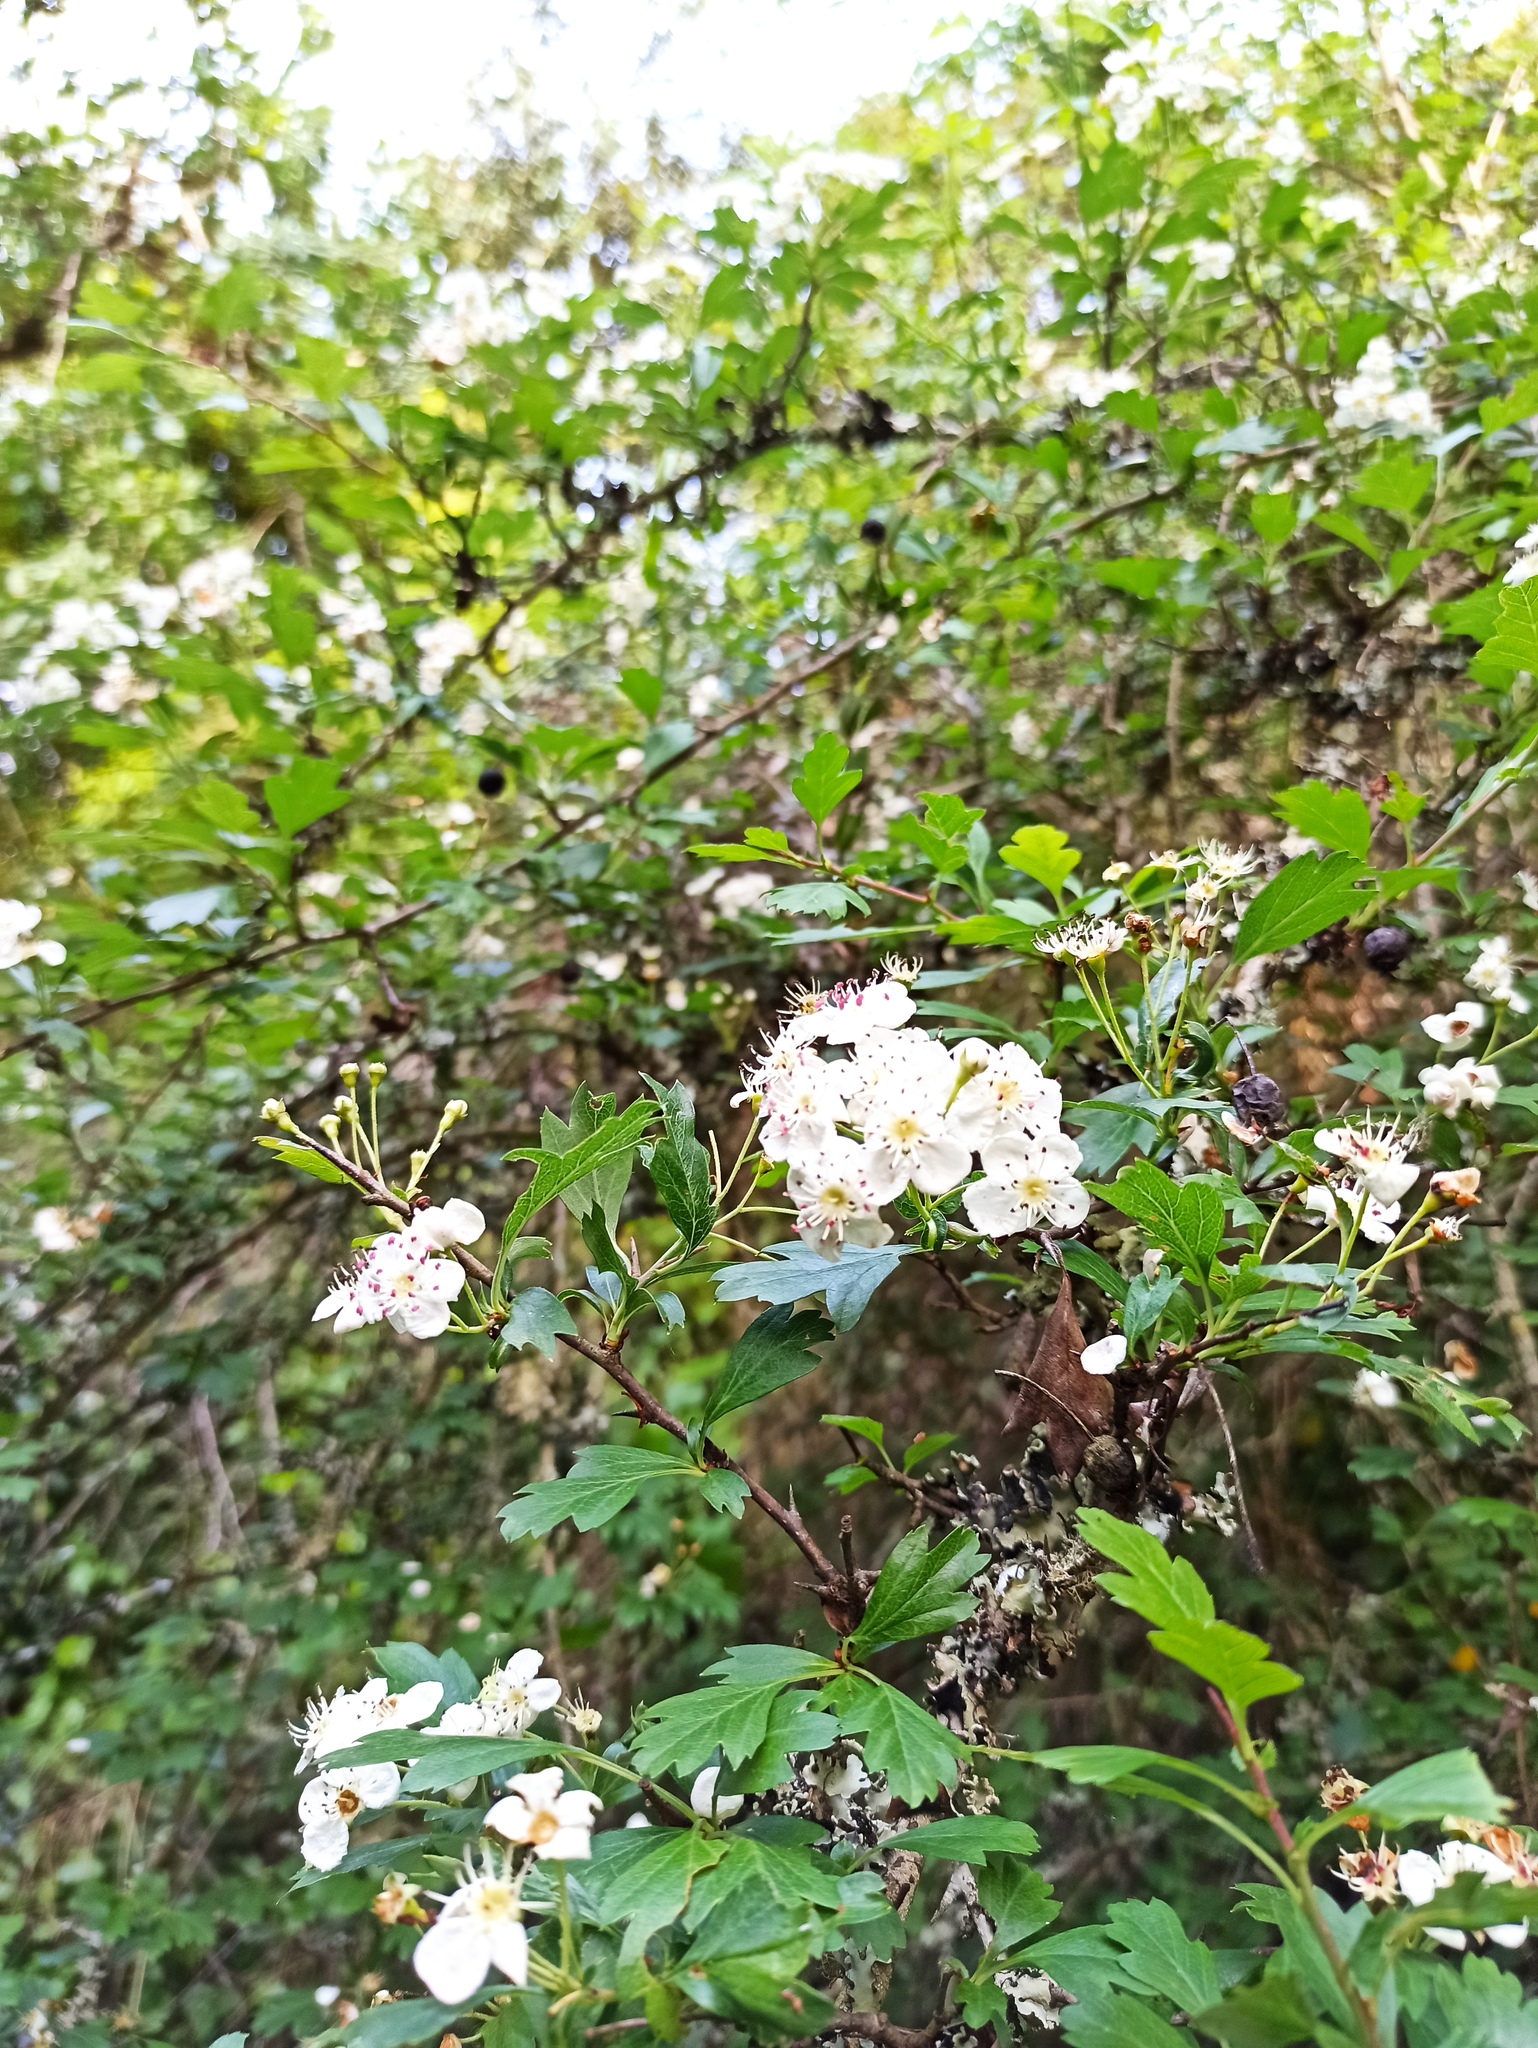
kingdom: Plantae
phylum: Tracheophyta
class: Magnoliopsida
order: Rosales
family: Rosaceae
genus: Crataegus
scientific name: Crataegus monogyna
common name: Hawthorn
